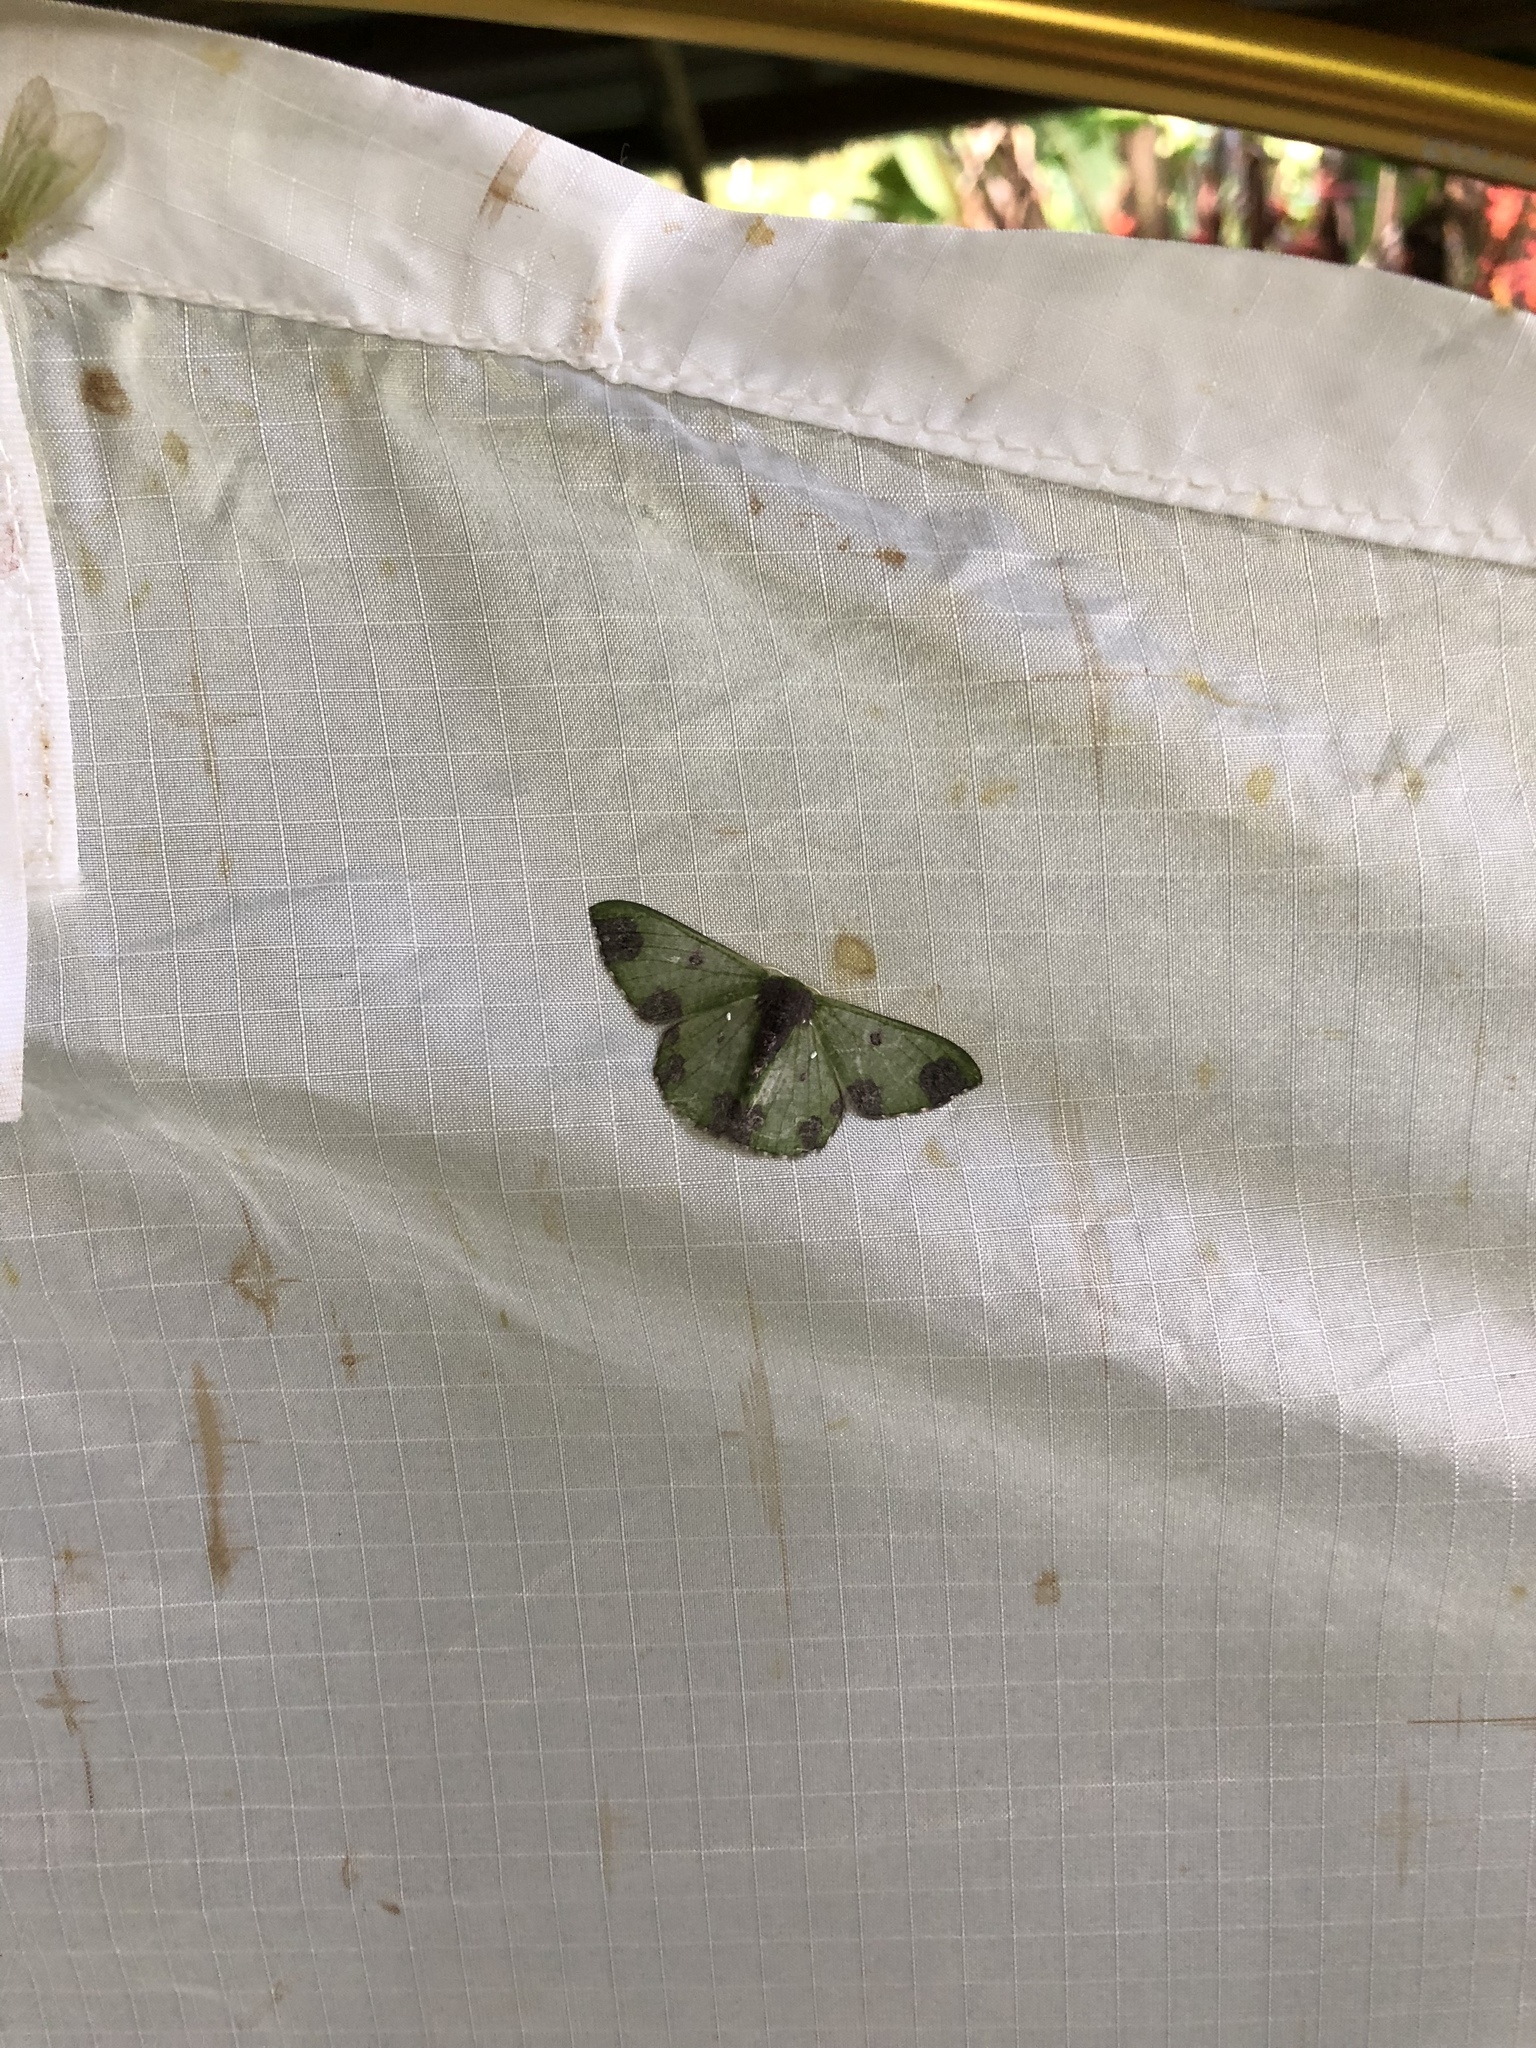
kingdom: Animalia
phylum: Arthropoda
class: Insecta
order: Lepidoptera
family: Geometridae
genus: Oospila
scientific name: Oospila atopochlora
